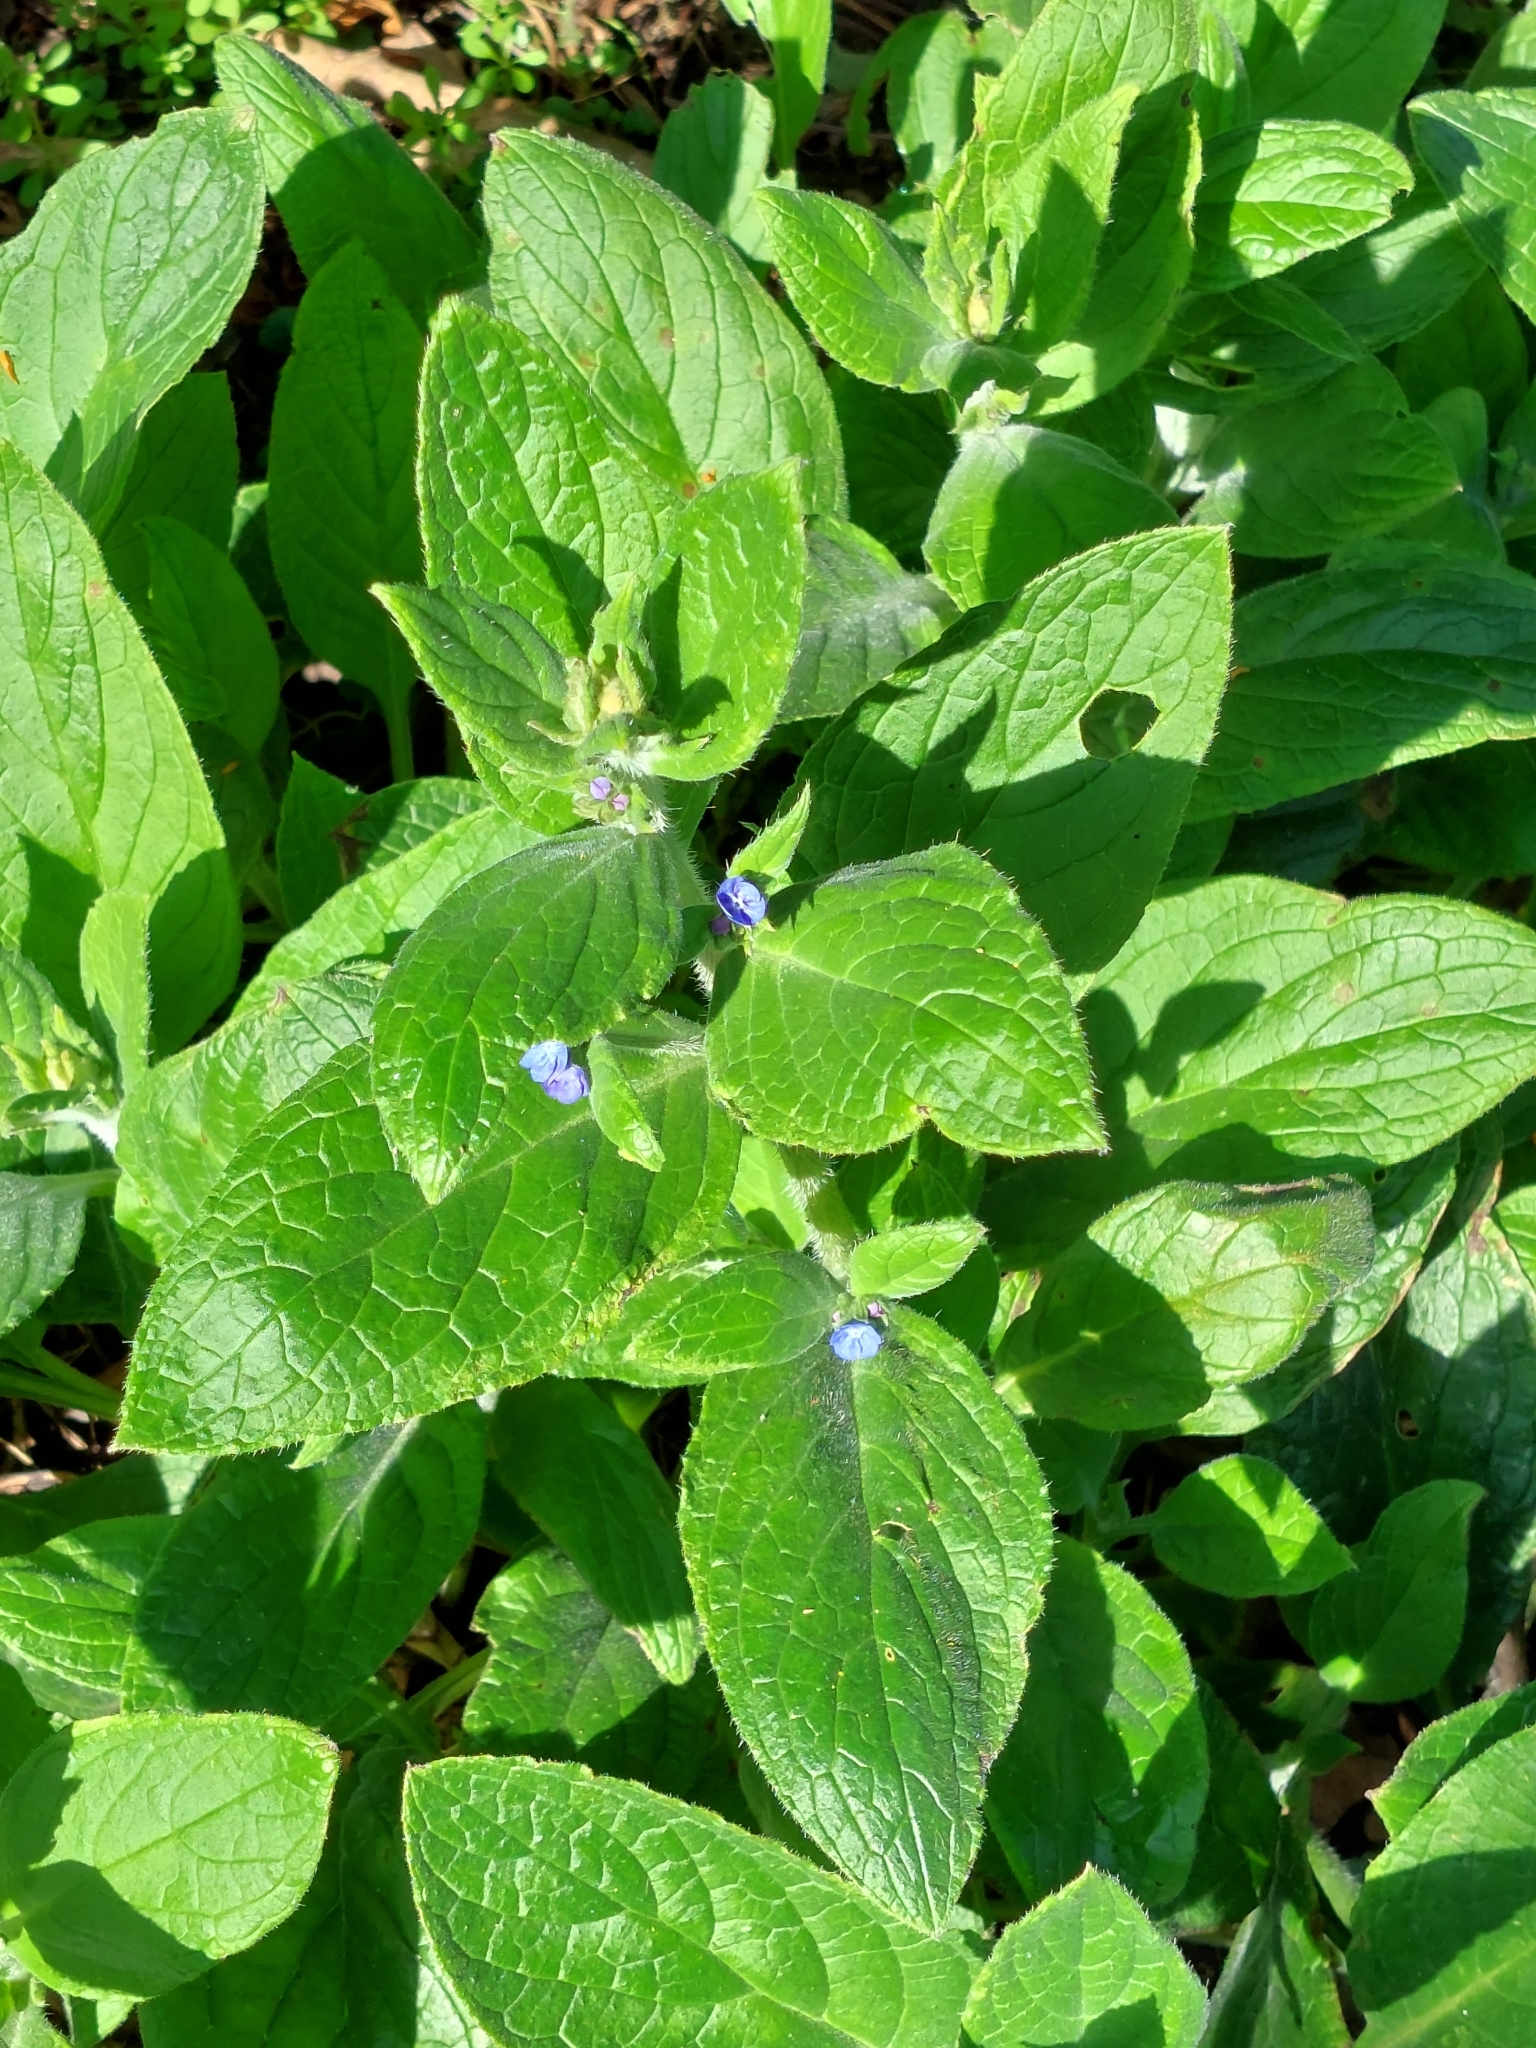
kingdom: Plantae
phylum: Tracheophyta
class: Magnoliopsida
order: Boraginales
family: Boraginaceae
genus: Pentaglottis
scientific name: Pentaglottis sempervirens
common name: Green alkanet
